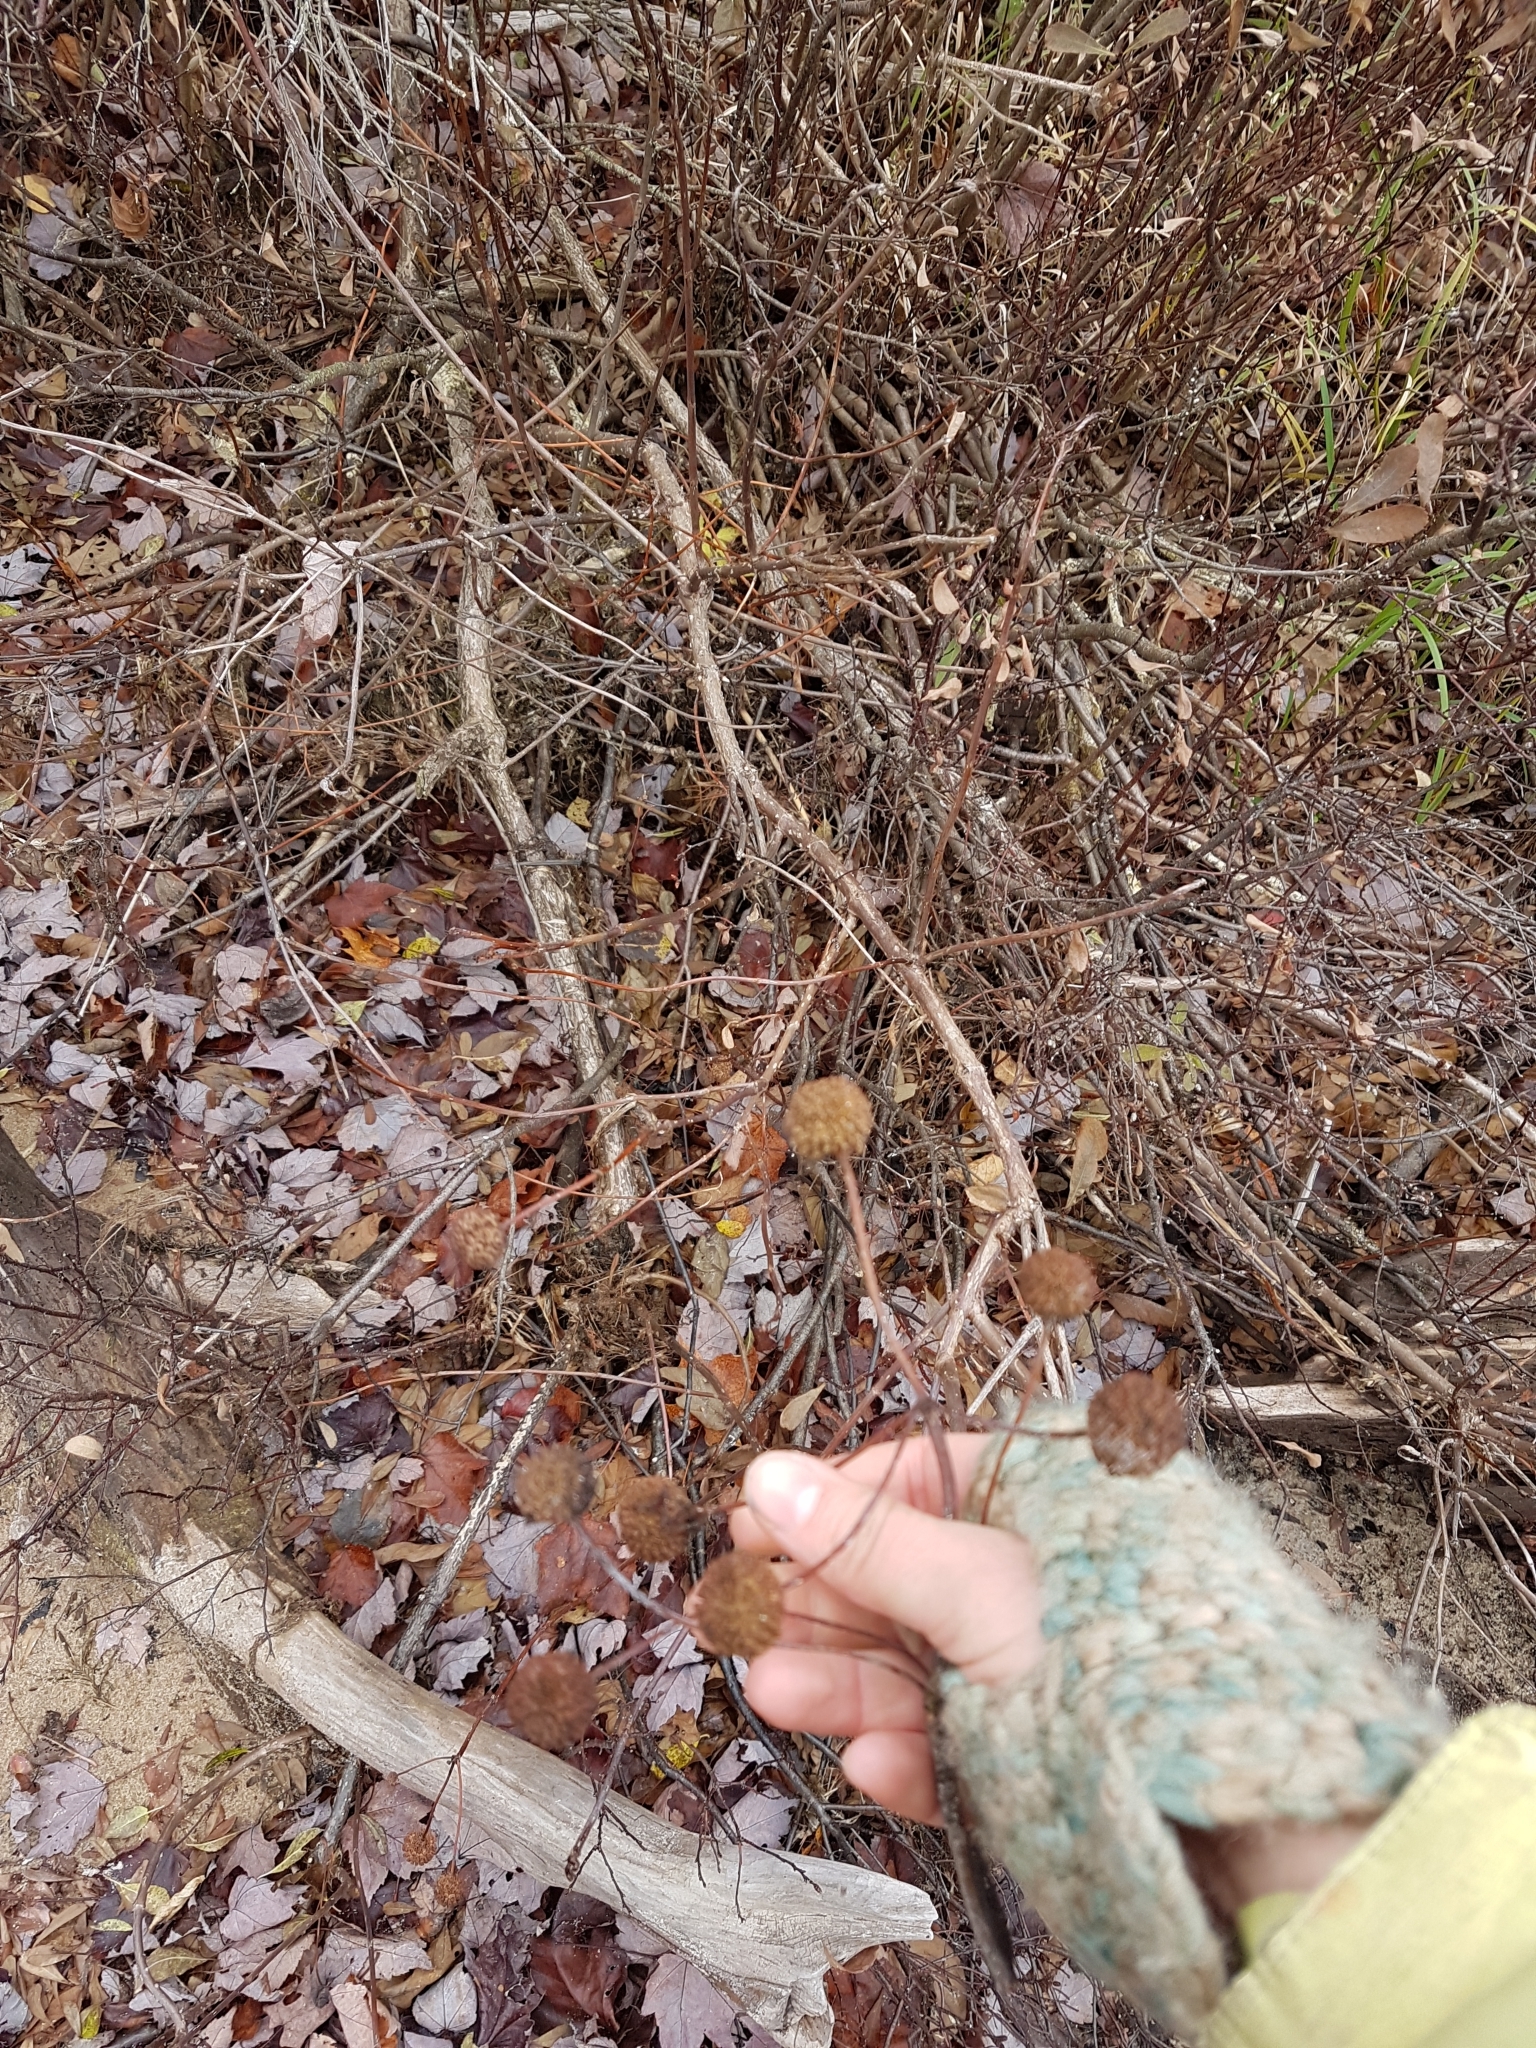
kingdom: Plantae
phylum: Tracheophyta
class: Magnoliopsida
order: Gentianales
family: Rubiaceae
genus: Cephalanthus
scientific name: Cephalanthus occidentalis
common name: Button-willow
